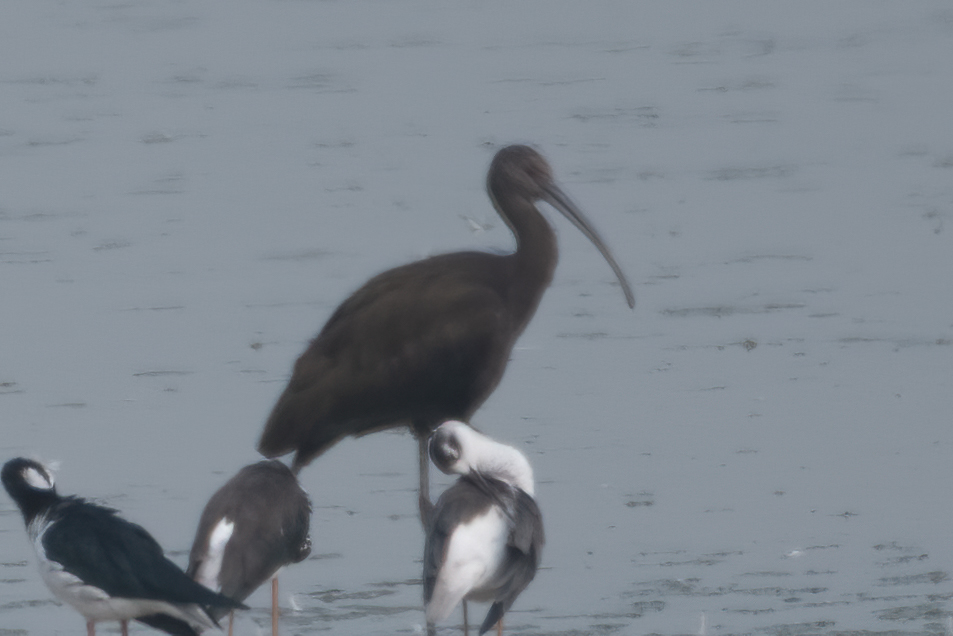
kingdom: Animalia
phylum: Chordata
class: Aves
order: Pelecaniformes
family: Threskiornithidae
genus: Plegadis
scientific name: Plegadis chihi
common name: White-faced ibis
